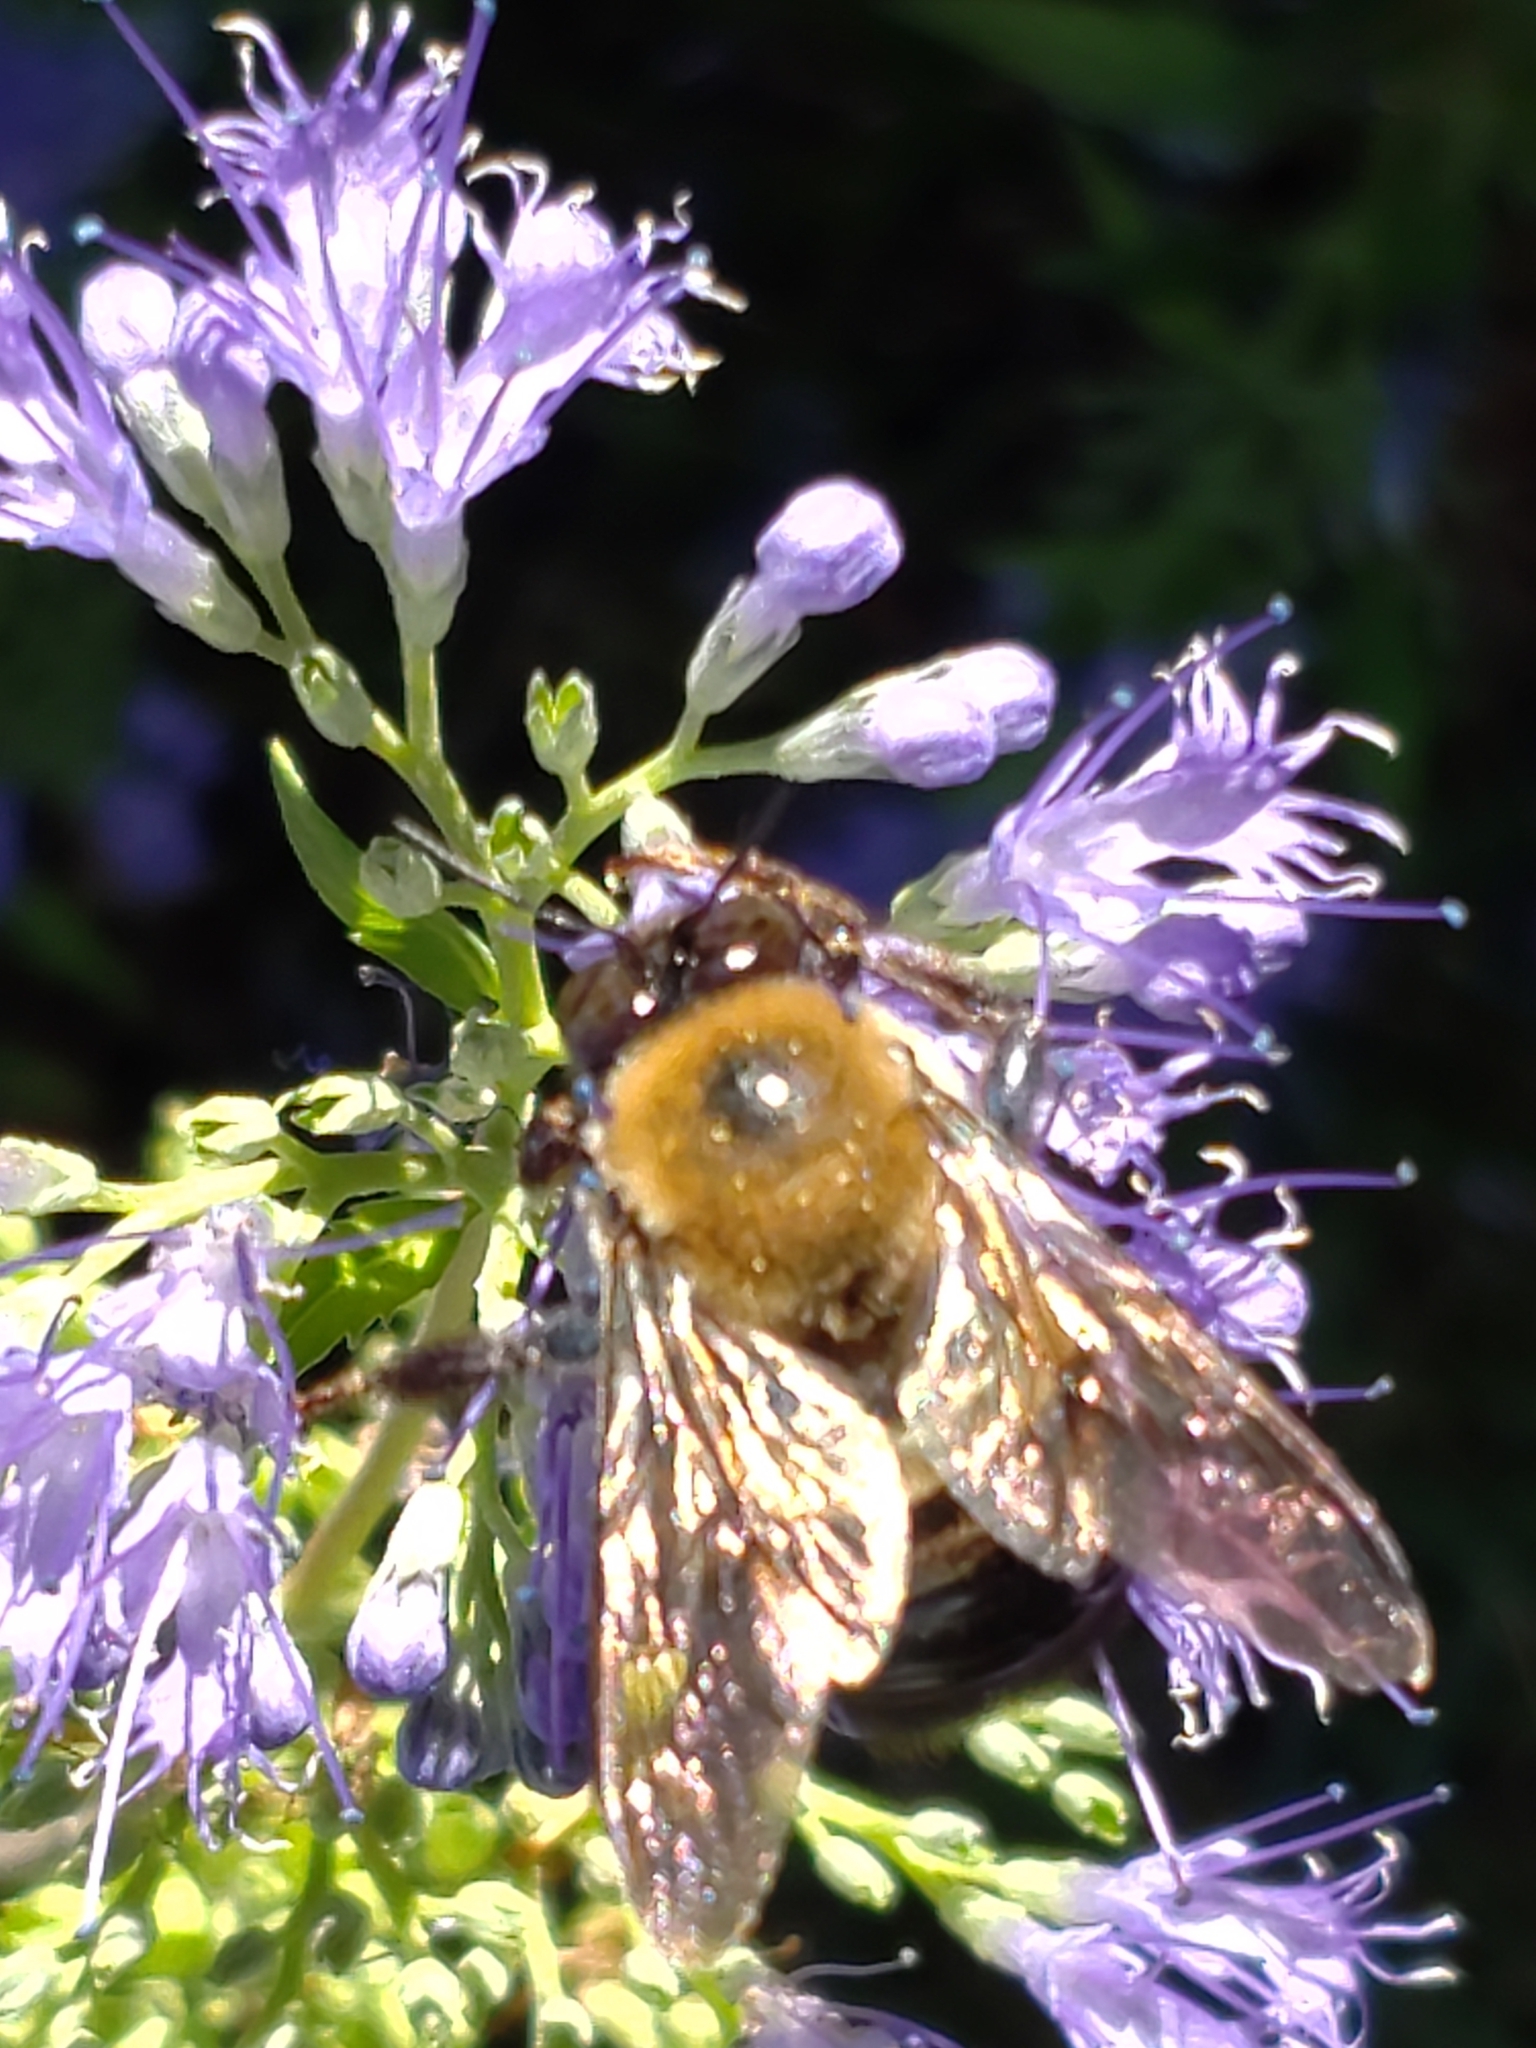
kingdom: Animalia
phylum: Arthropoda
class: Insecta
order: Hymenoptera
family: Apidae
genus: Xylocopa
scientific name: Xylocopa virginica
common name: Carpenter bee
